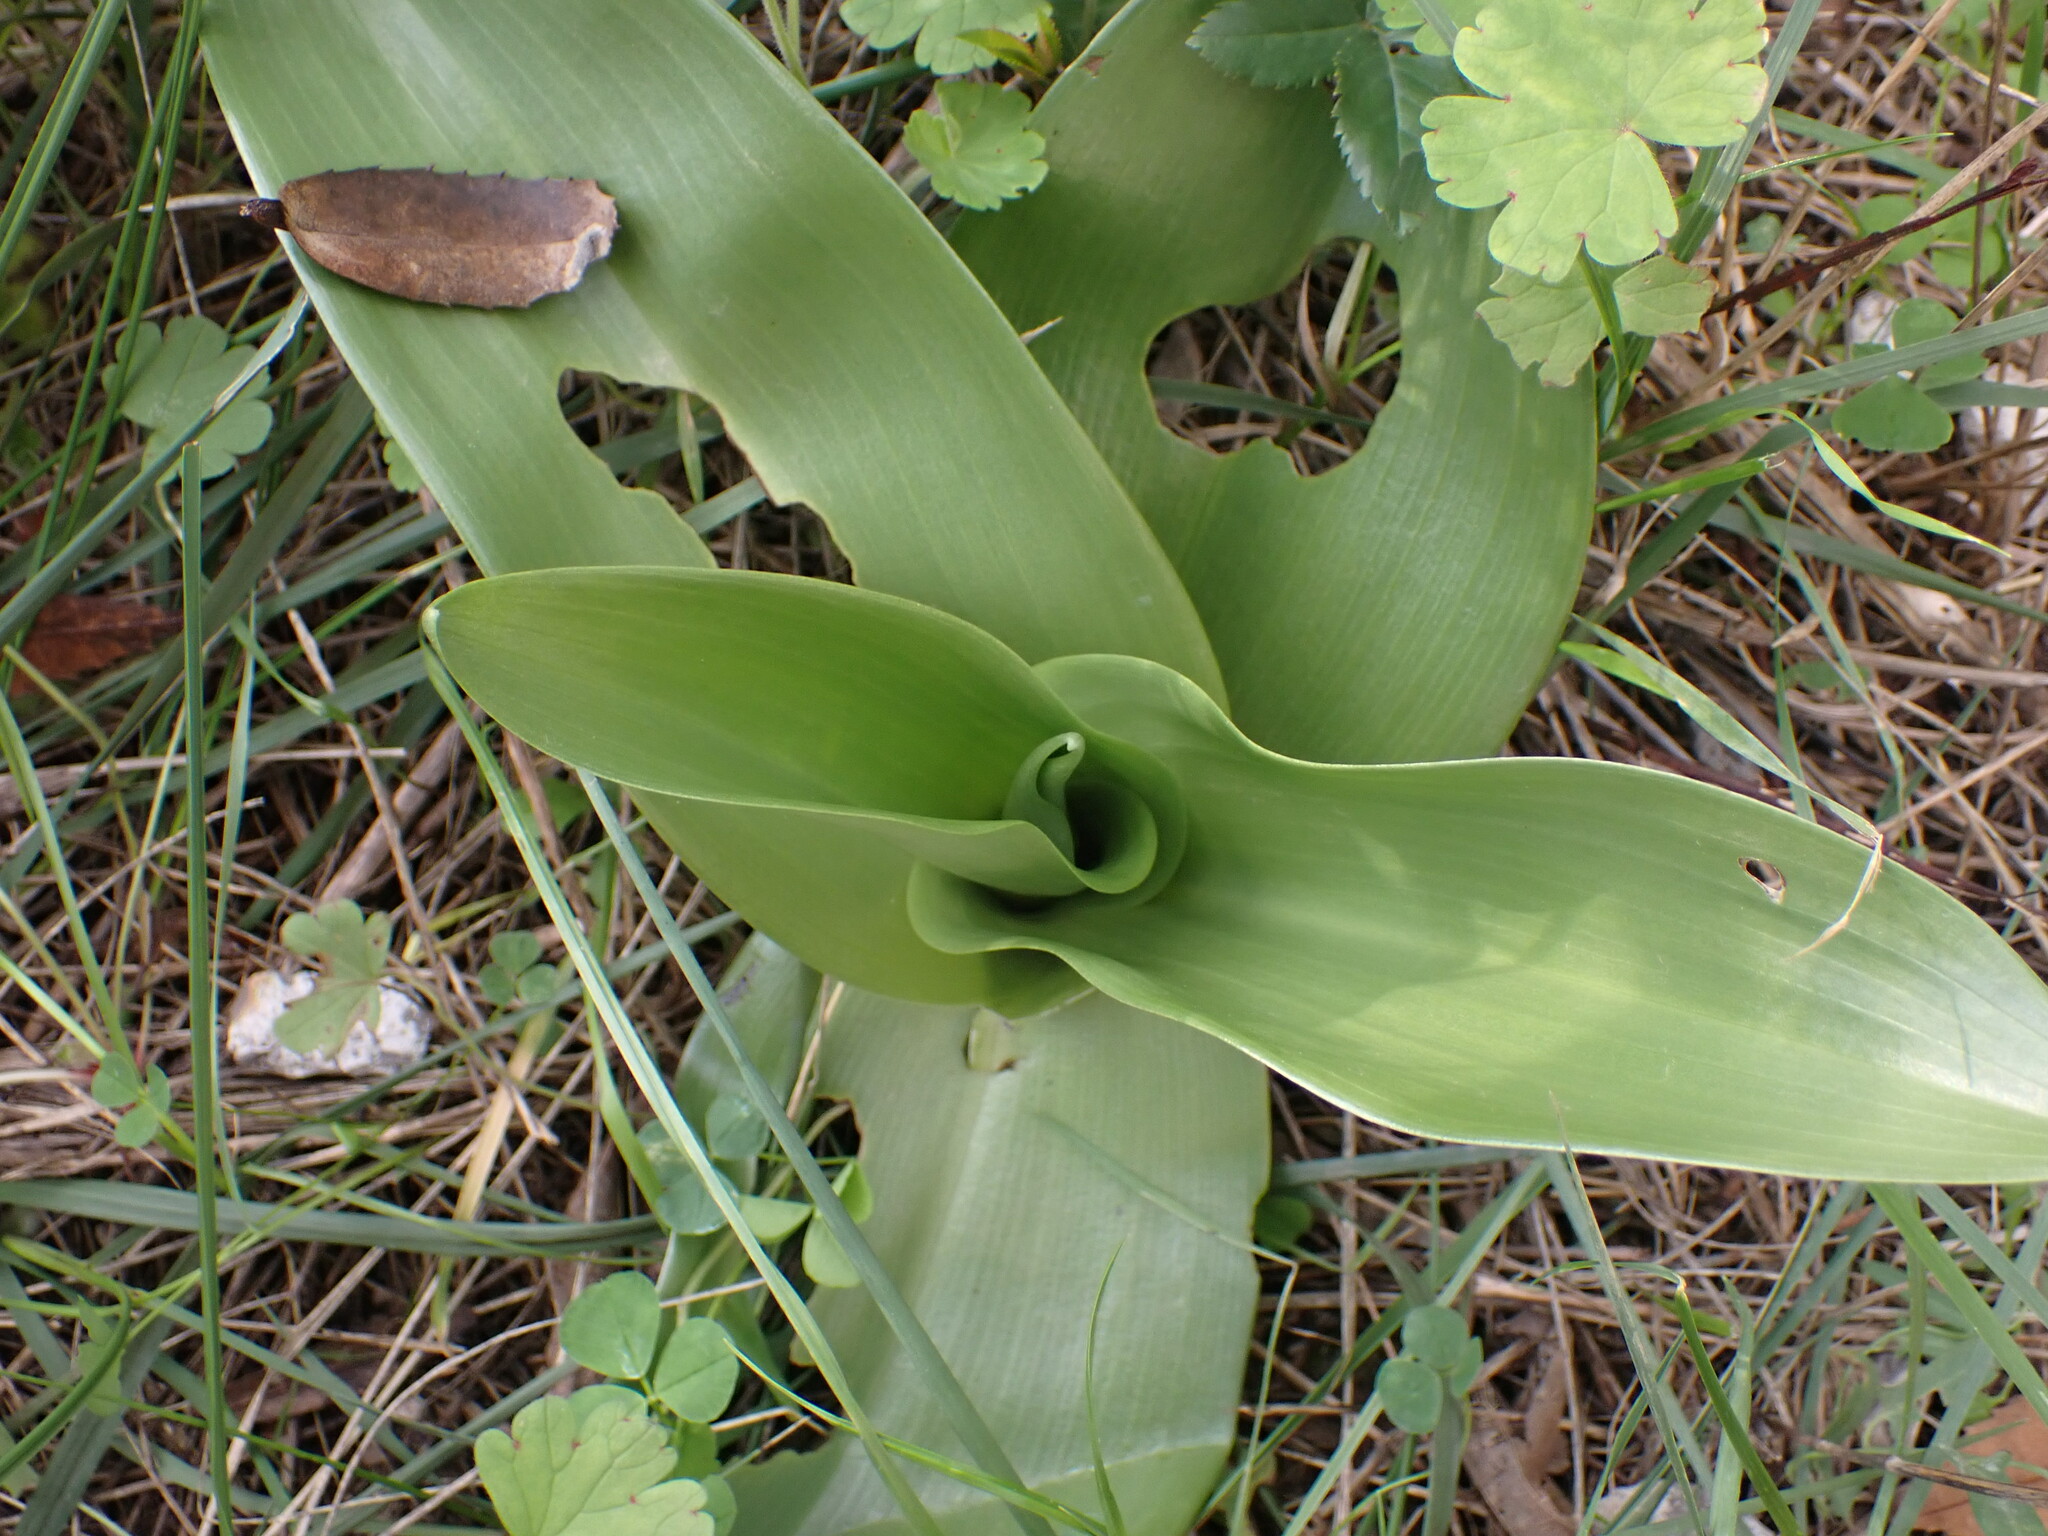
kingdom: Plantae
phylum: Tracheophyta
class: Liliopsida
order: Asparagales
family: Orchidaceae
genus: Himantoglossum
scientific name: Himantoglossum robertianum
